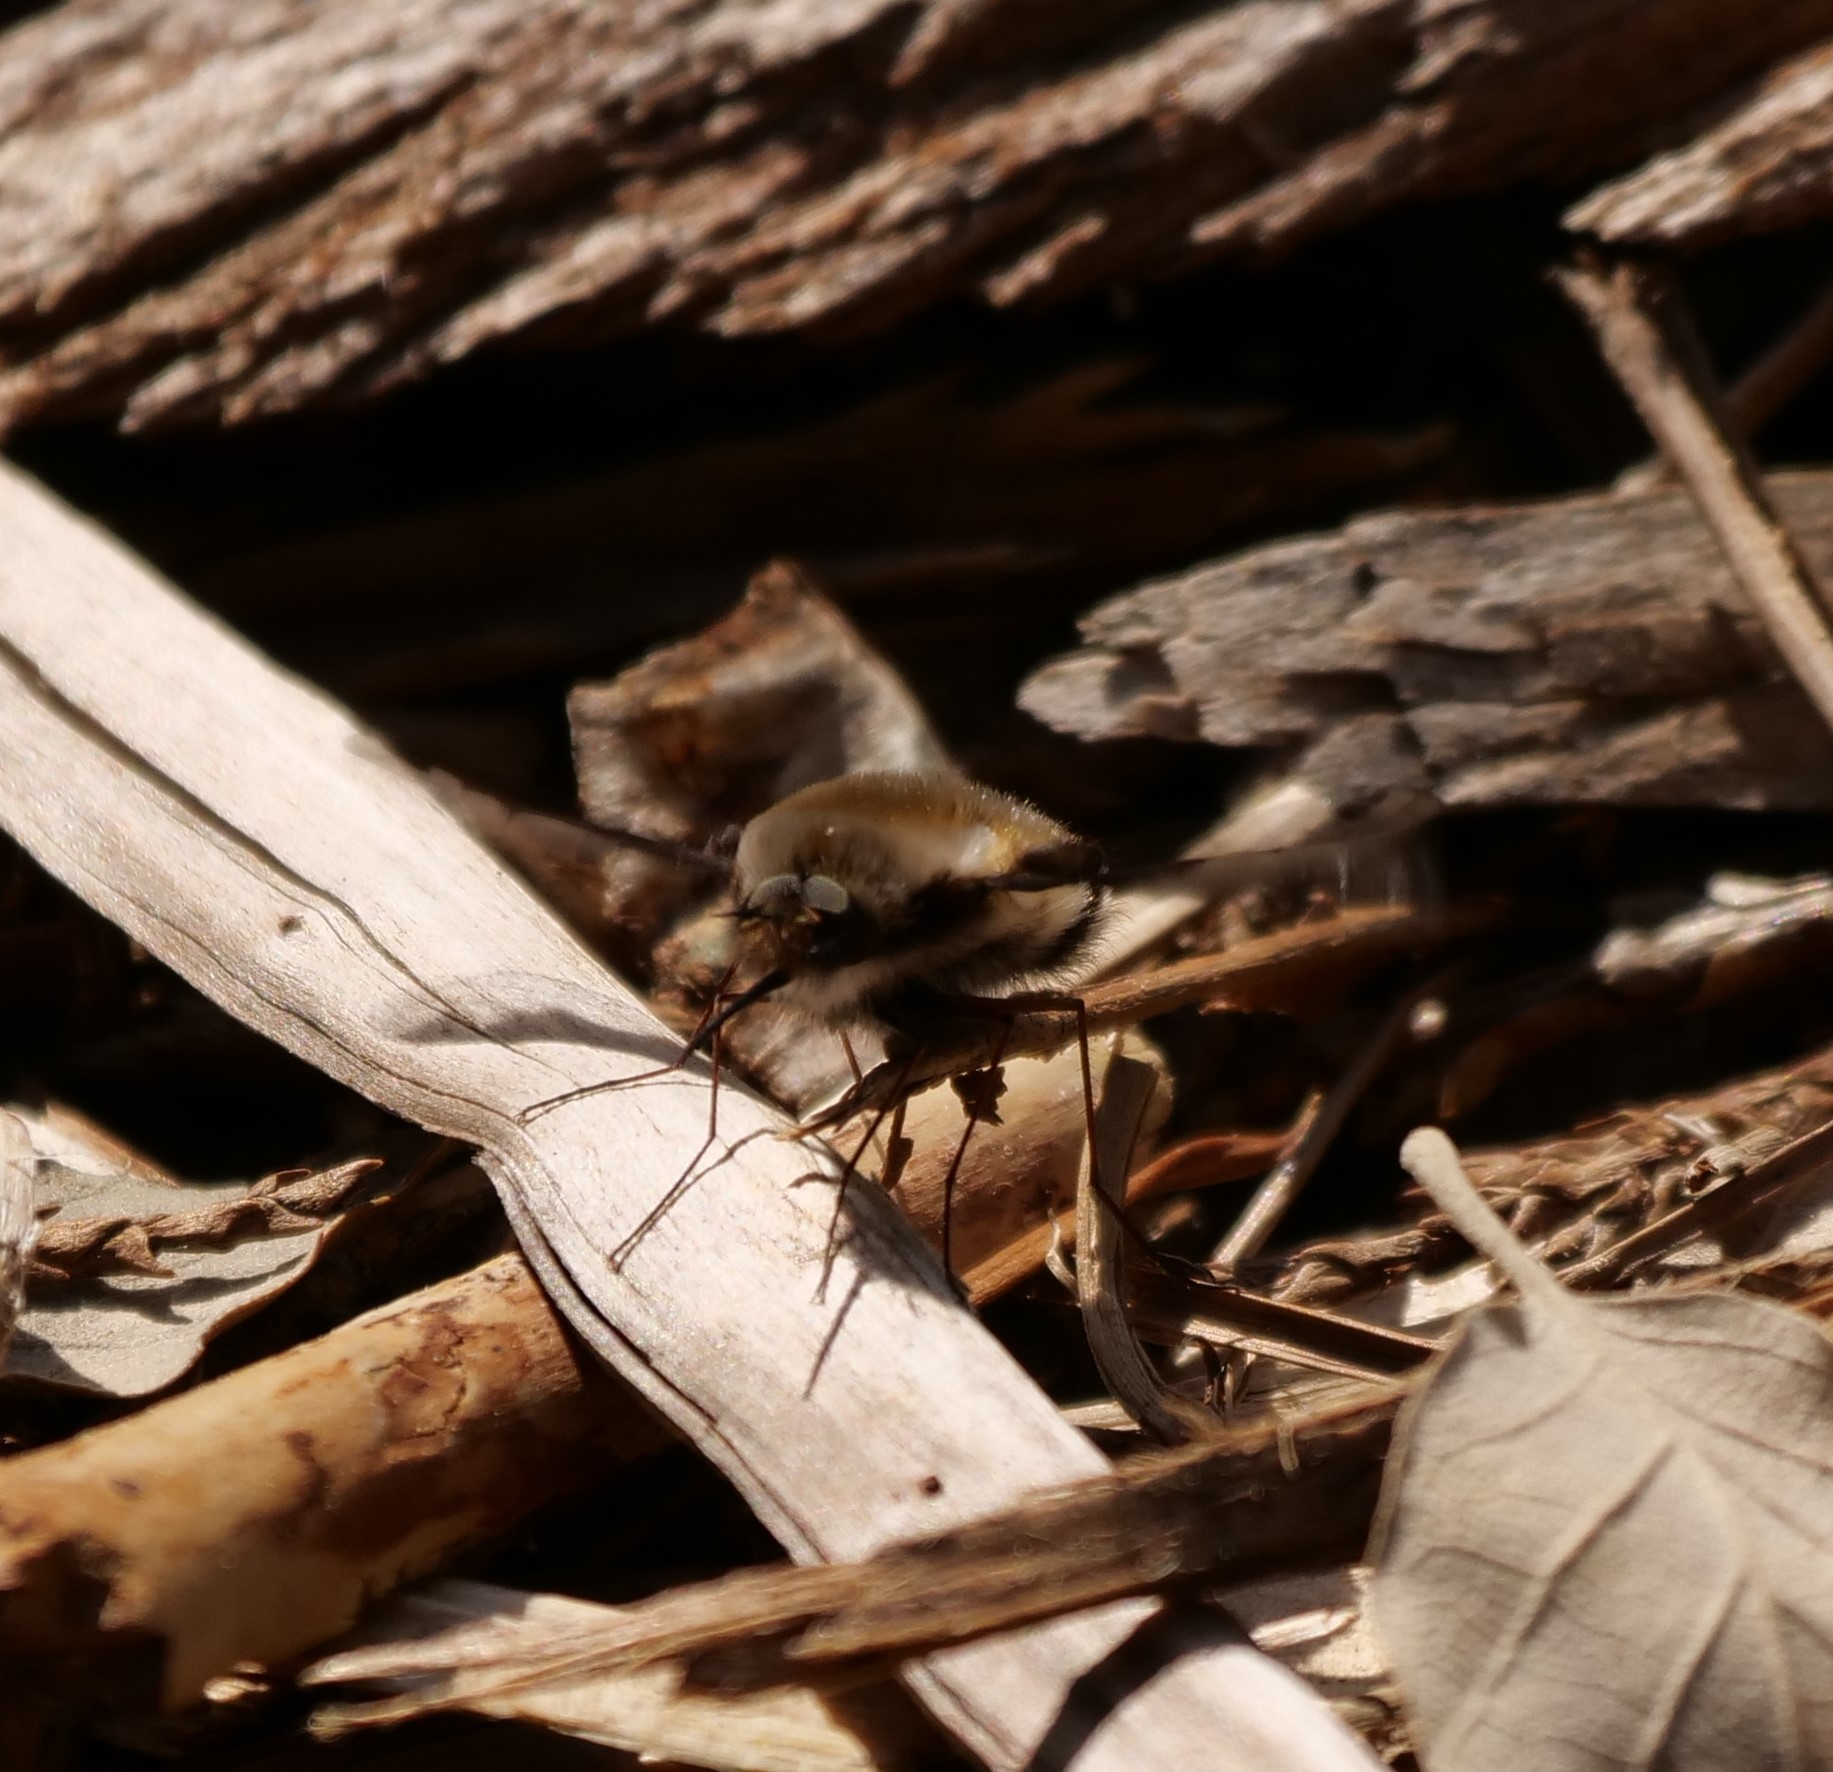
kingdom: Animalia
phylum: Arthropoda
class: Insecta
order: Diptera
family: Bombyliidae
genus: Bombylius
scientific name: Bombylius major
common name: Bee fly
